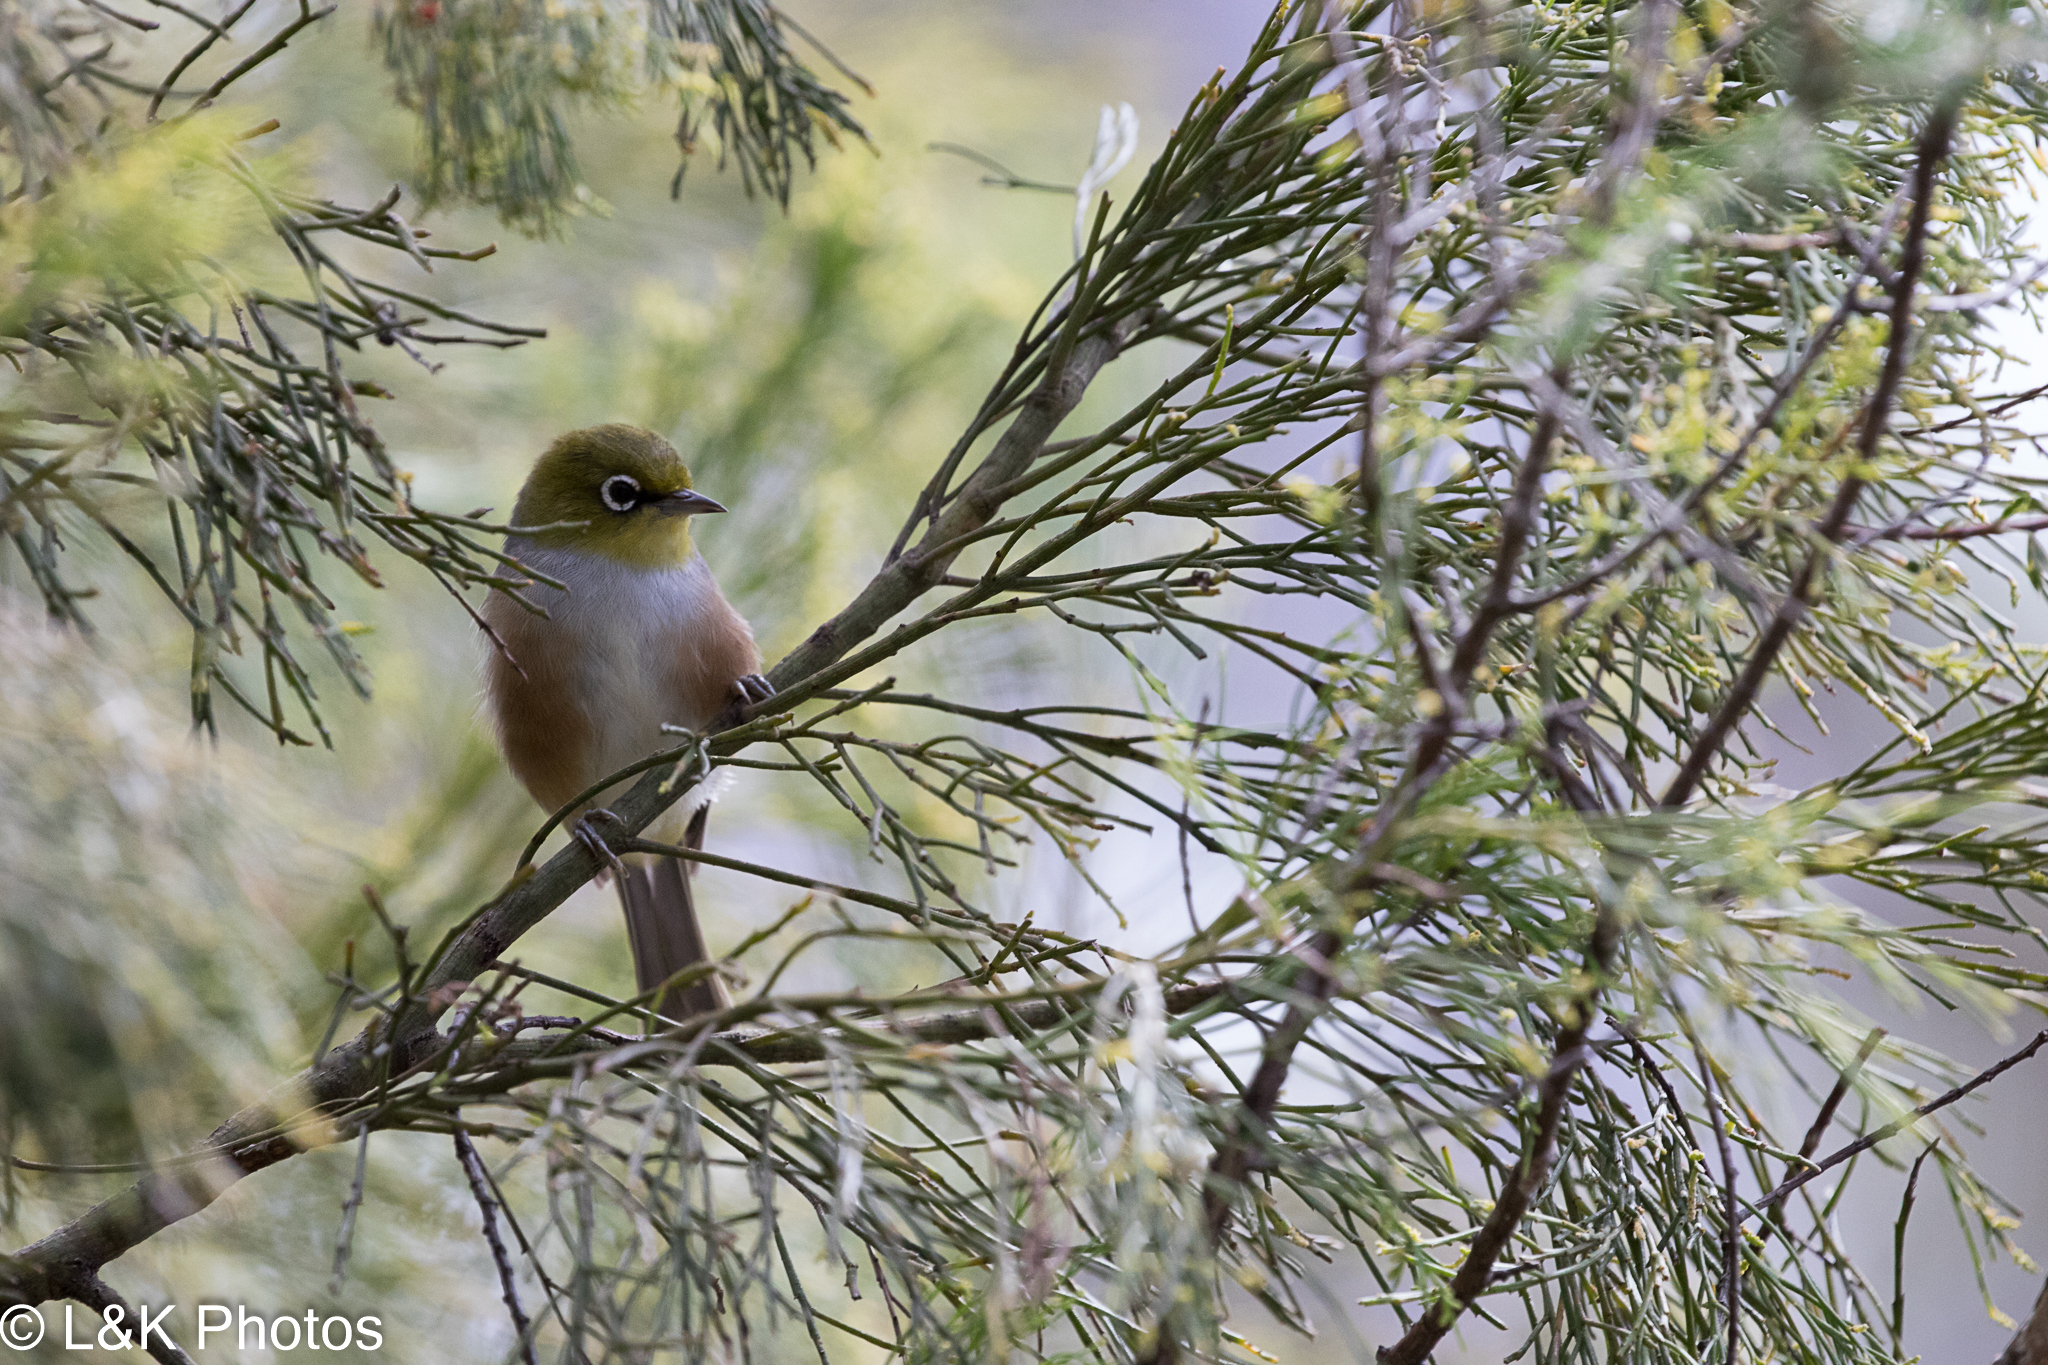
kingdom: Animalia
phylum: Chordata
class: Aves
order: Passeriformes
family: Zosteropidae
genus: Zosterops
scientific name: Zosterops lateralis
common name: Silvereye
